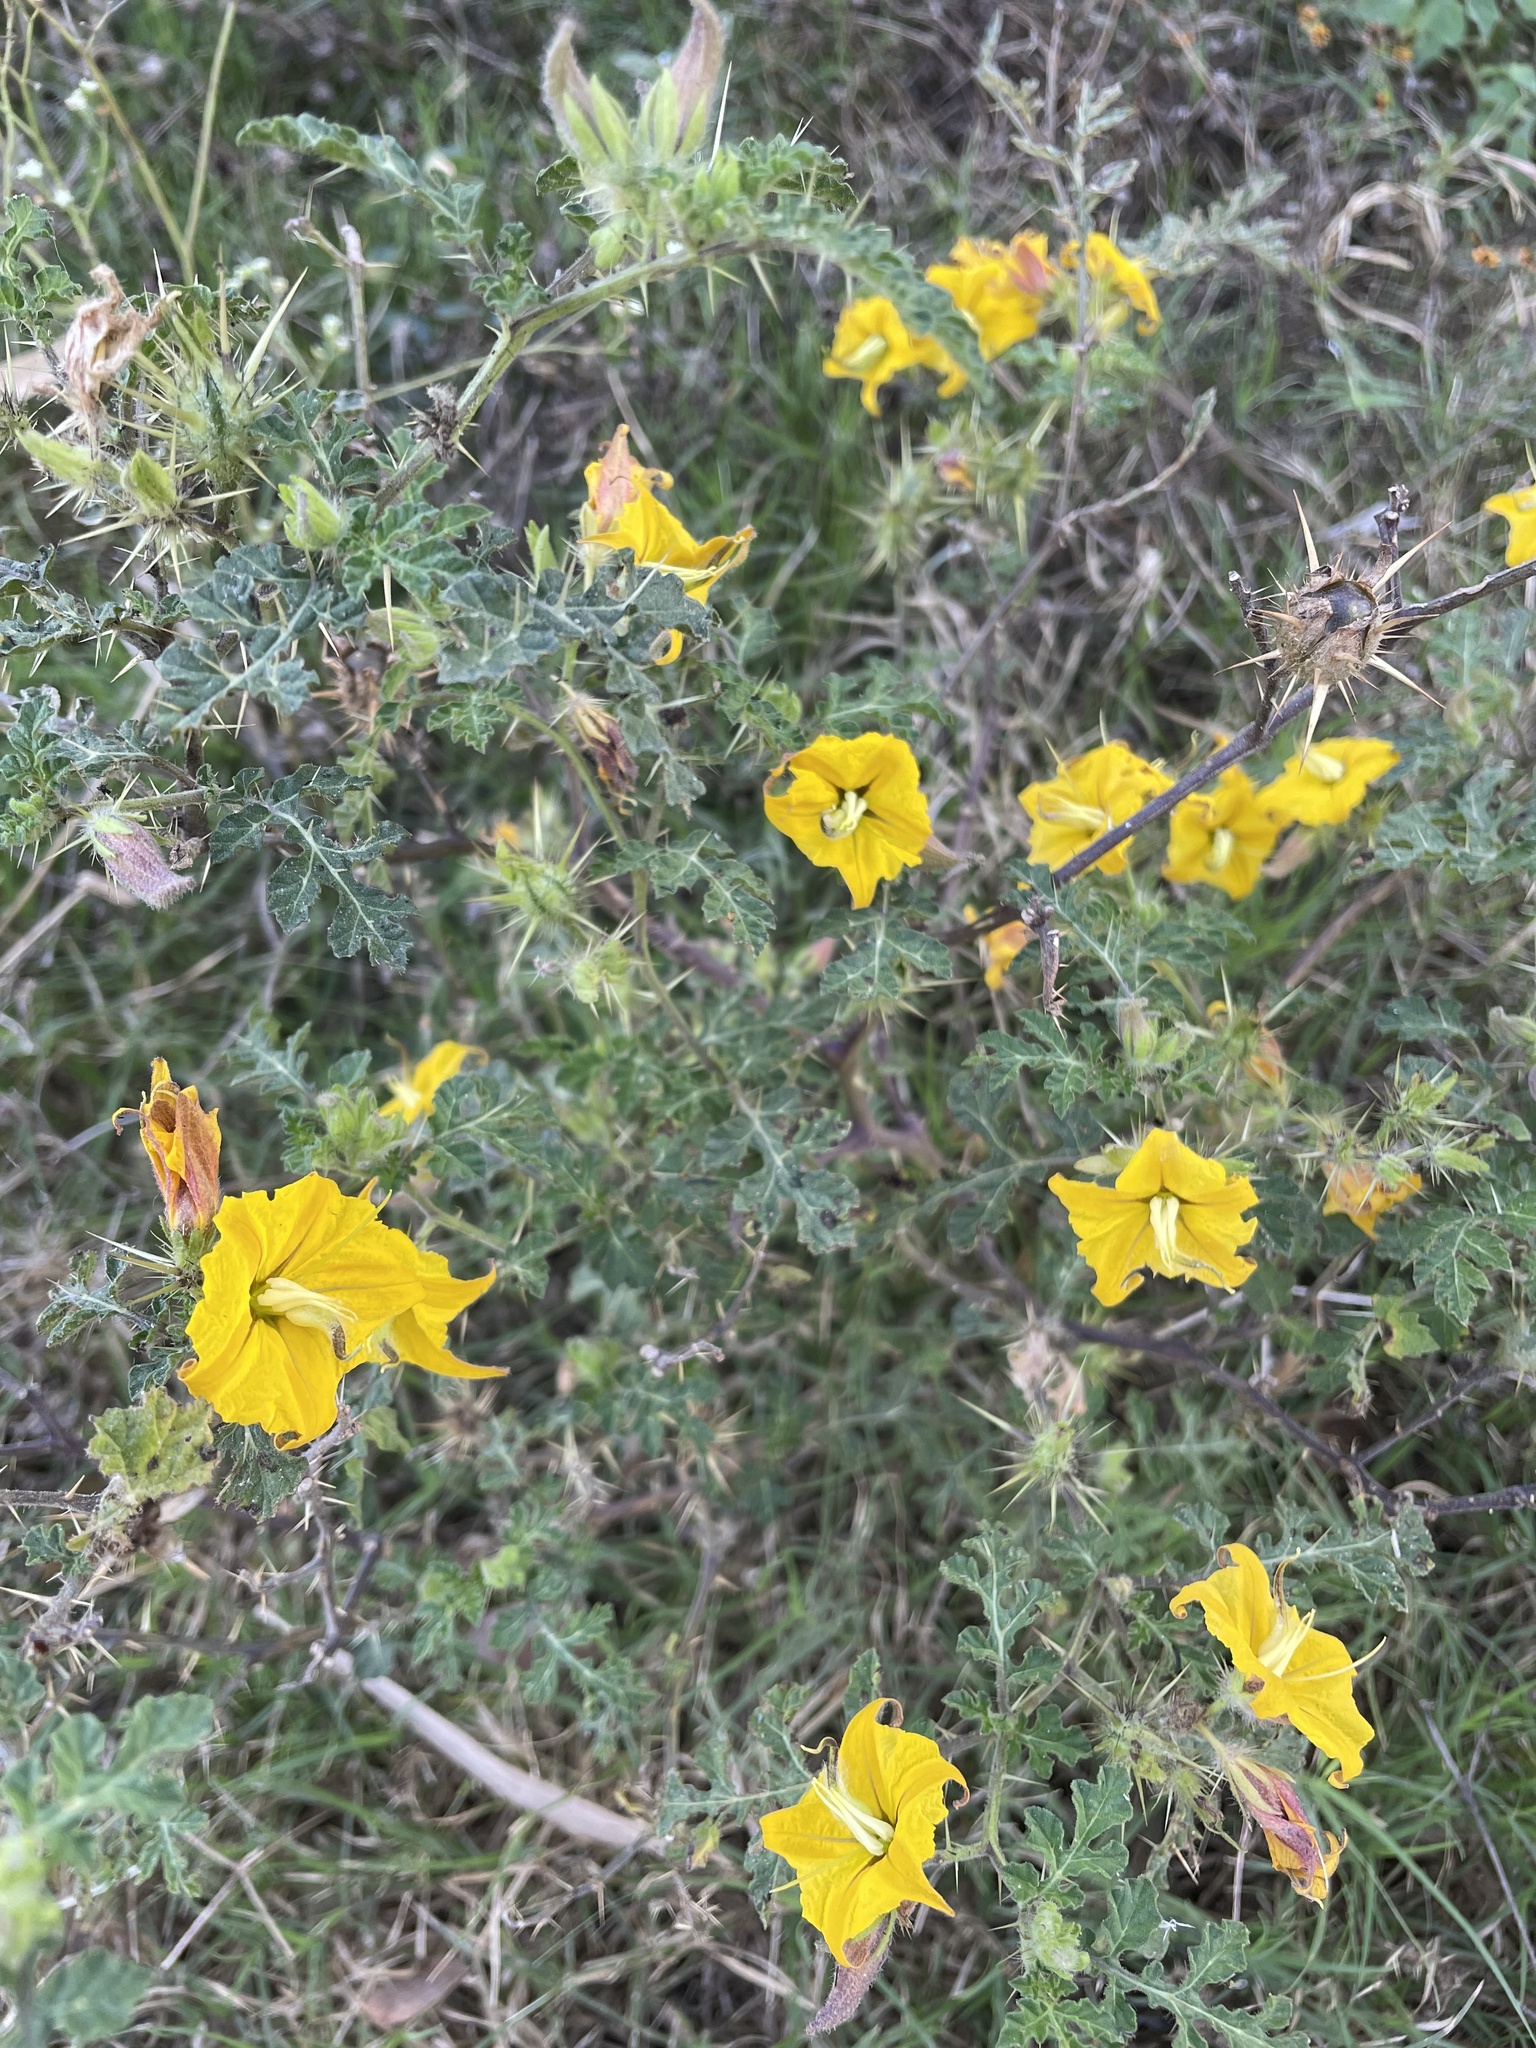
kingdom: Plantae
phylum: Tracheophyta
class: Magnoliopsida
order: Solanales
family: Solanaceae
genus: Solanum
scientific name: Solanum angustifolium
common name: Buffalobur nightshade
